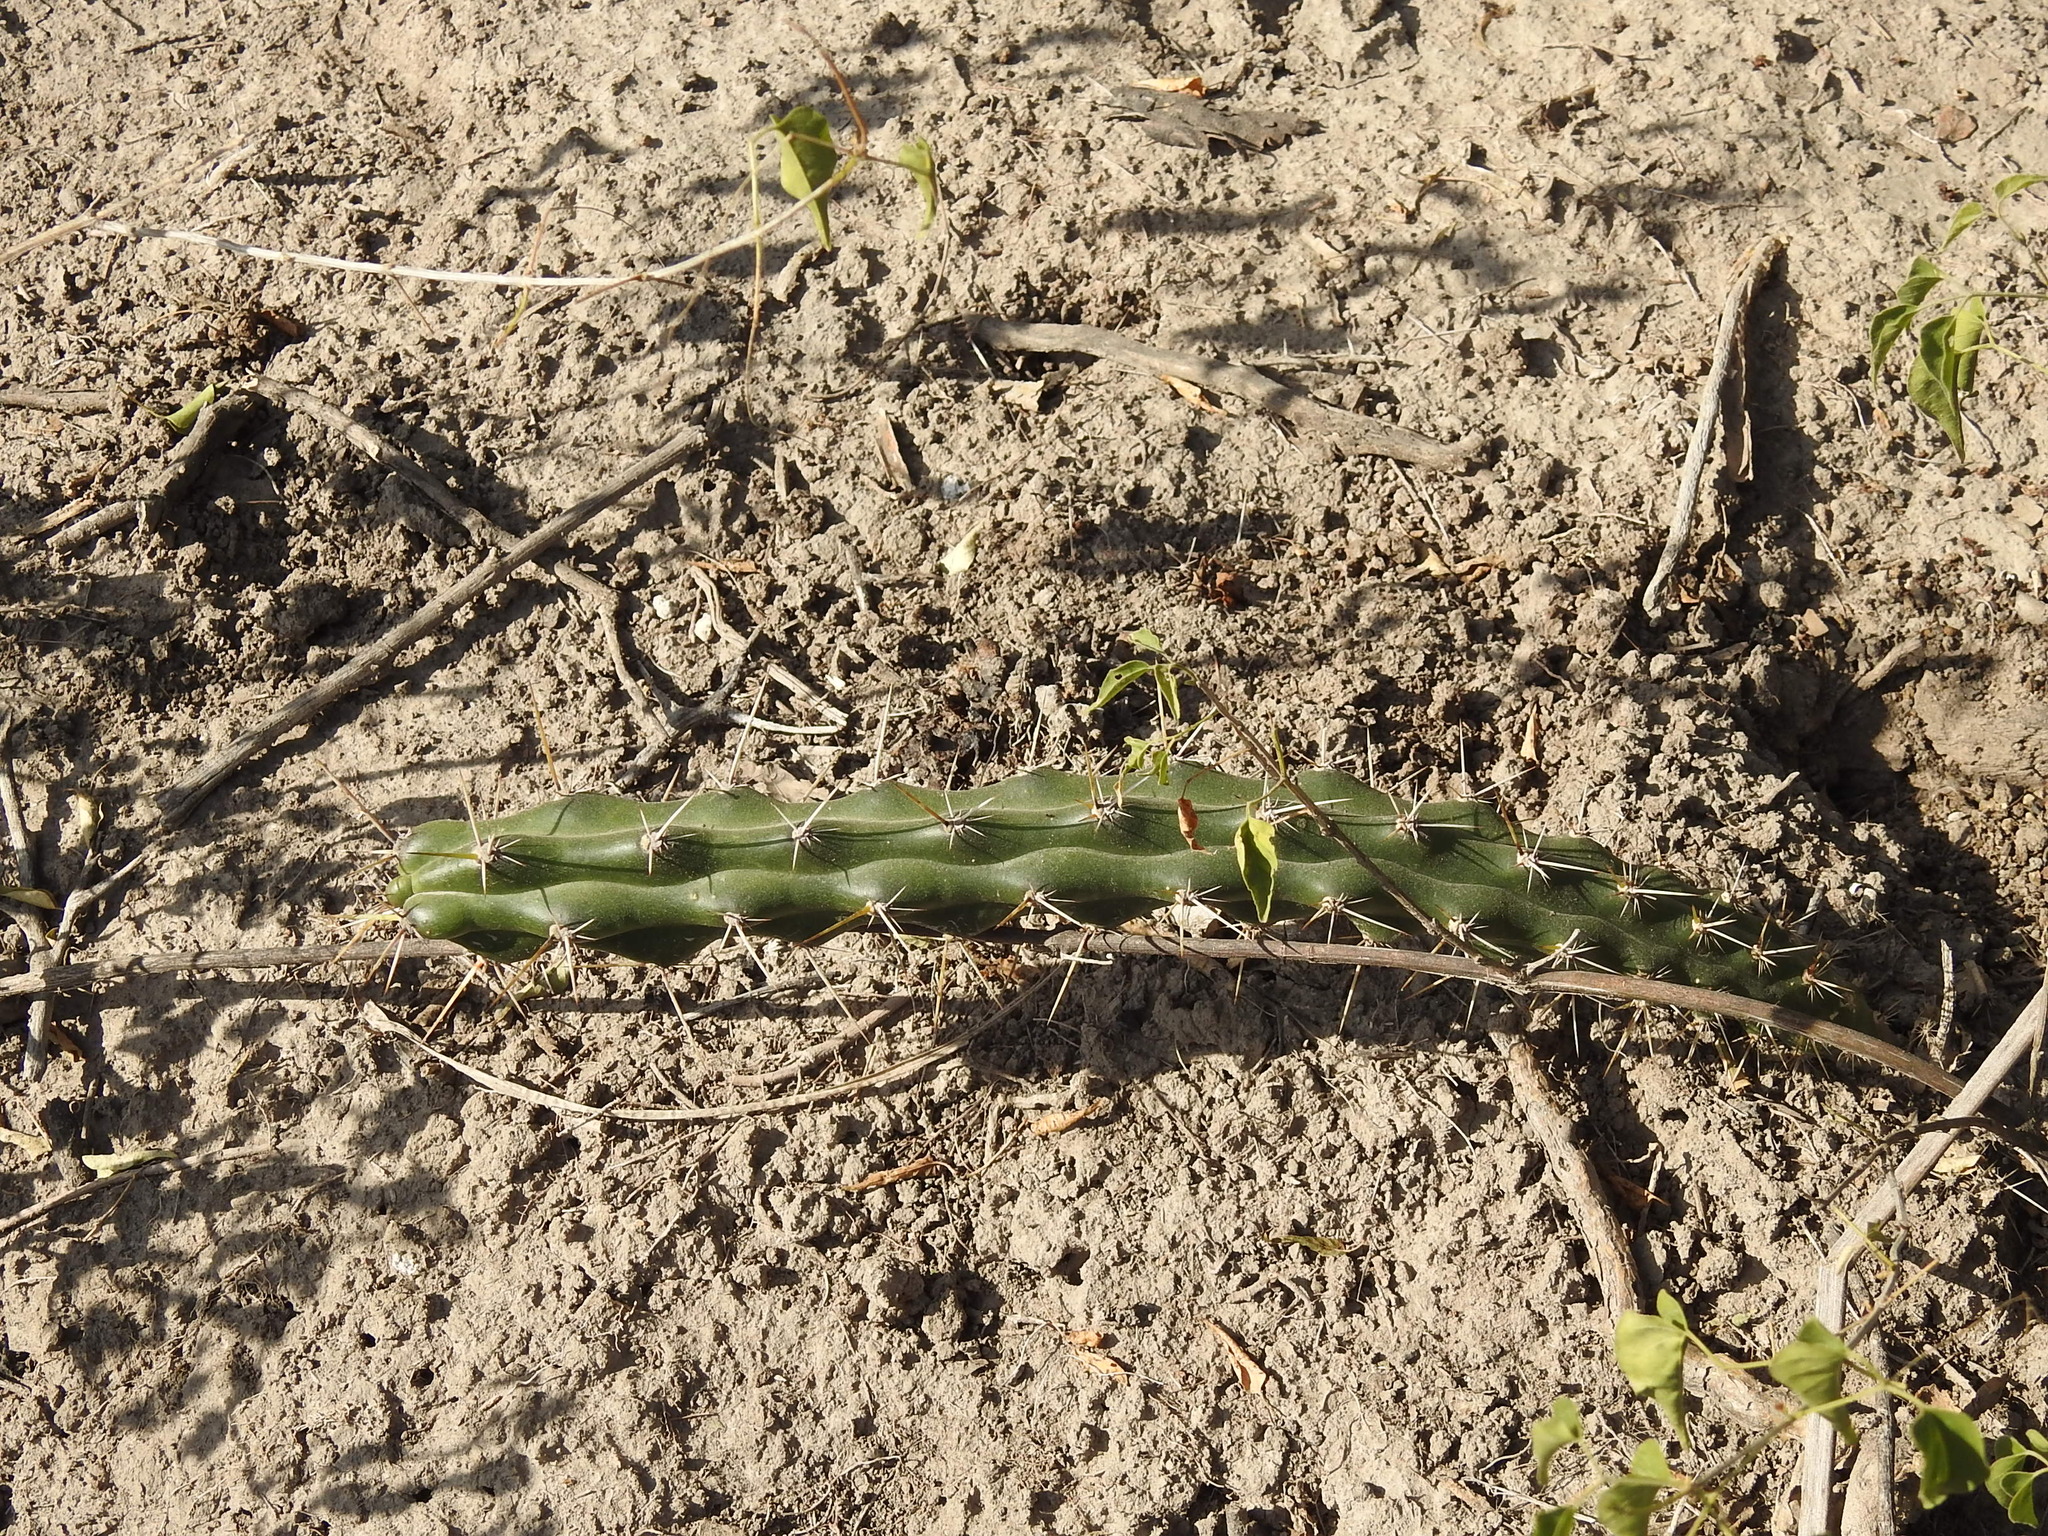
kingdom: Plantae
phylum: Tracheophyta
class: Magnoliopsida
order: Caryophyllales
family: Cactaceae
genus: Harrisia
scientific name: Harrisia martinii
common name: Moon cactus
